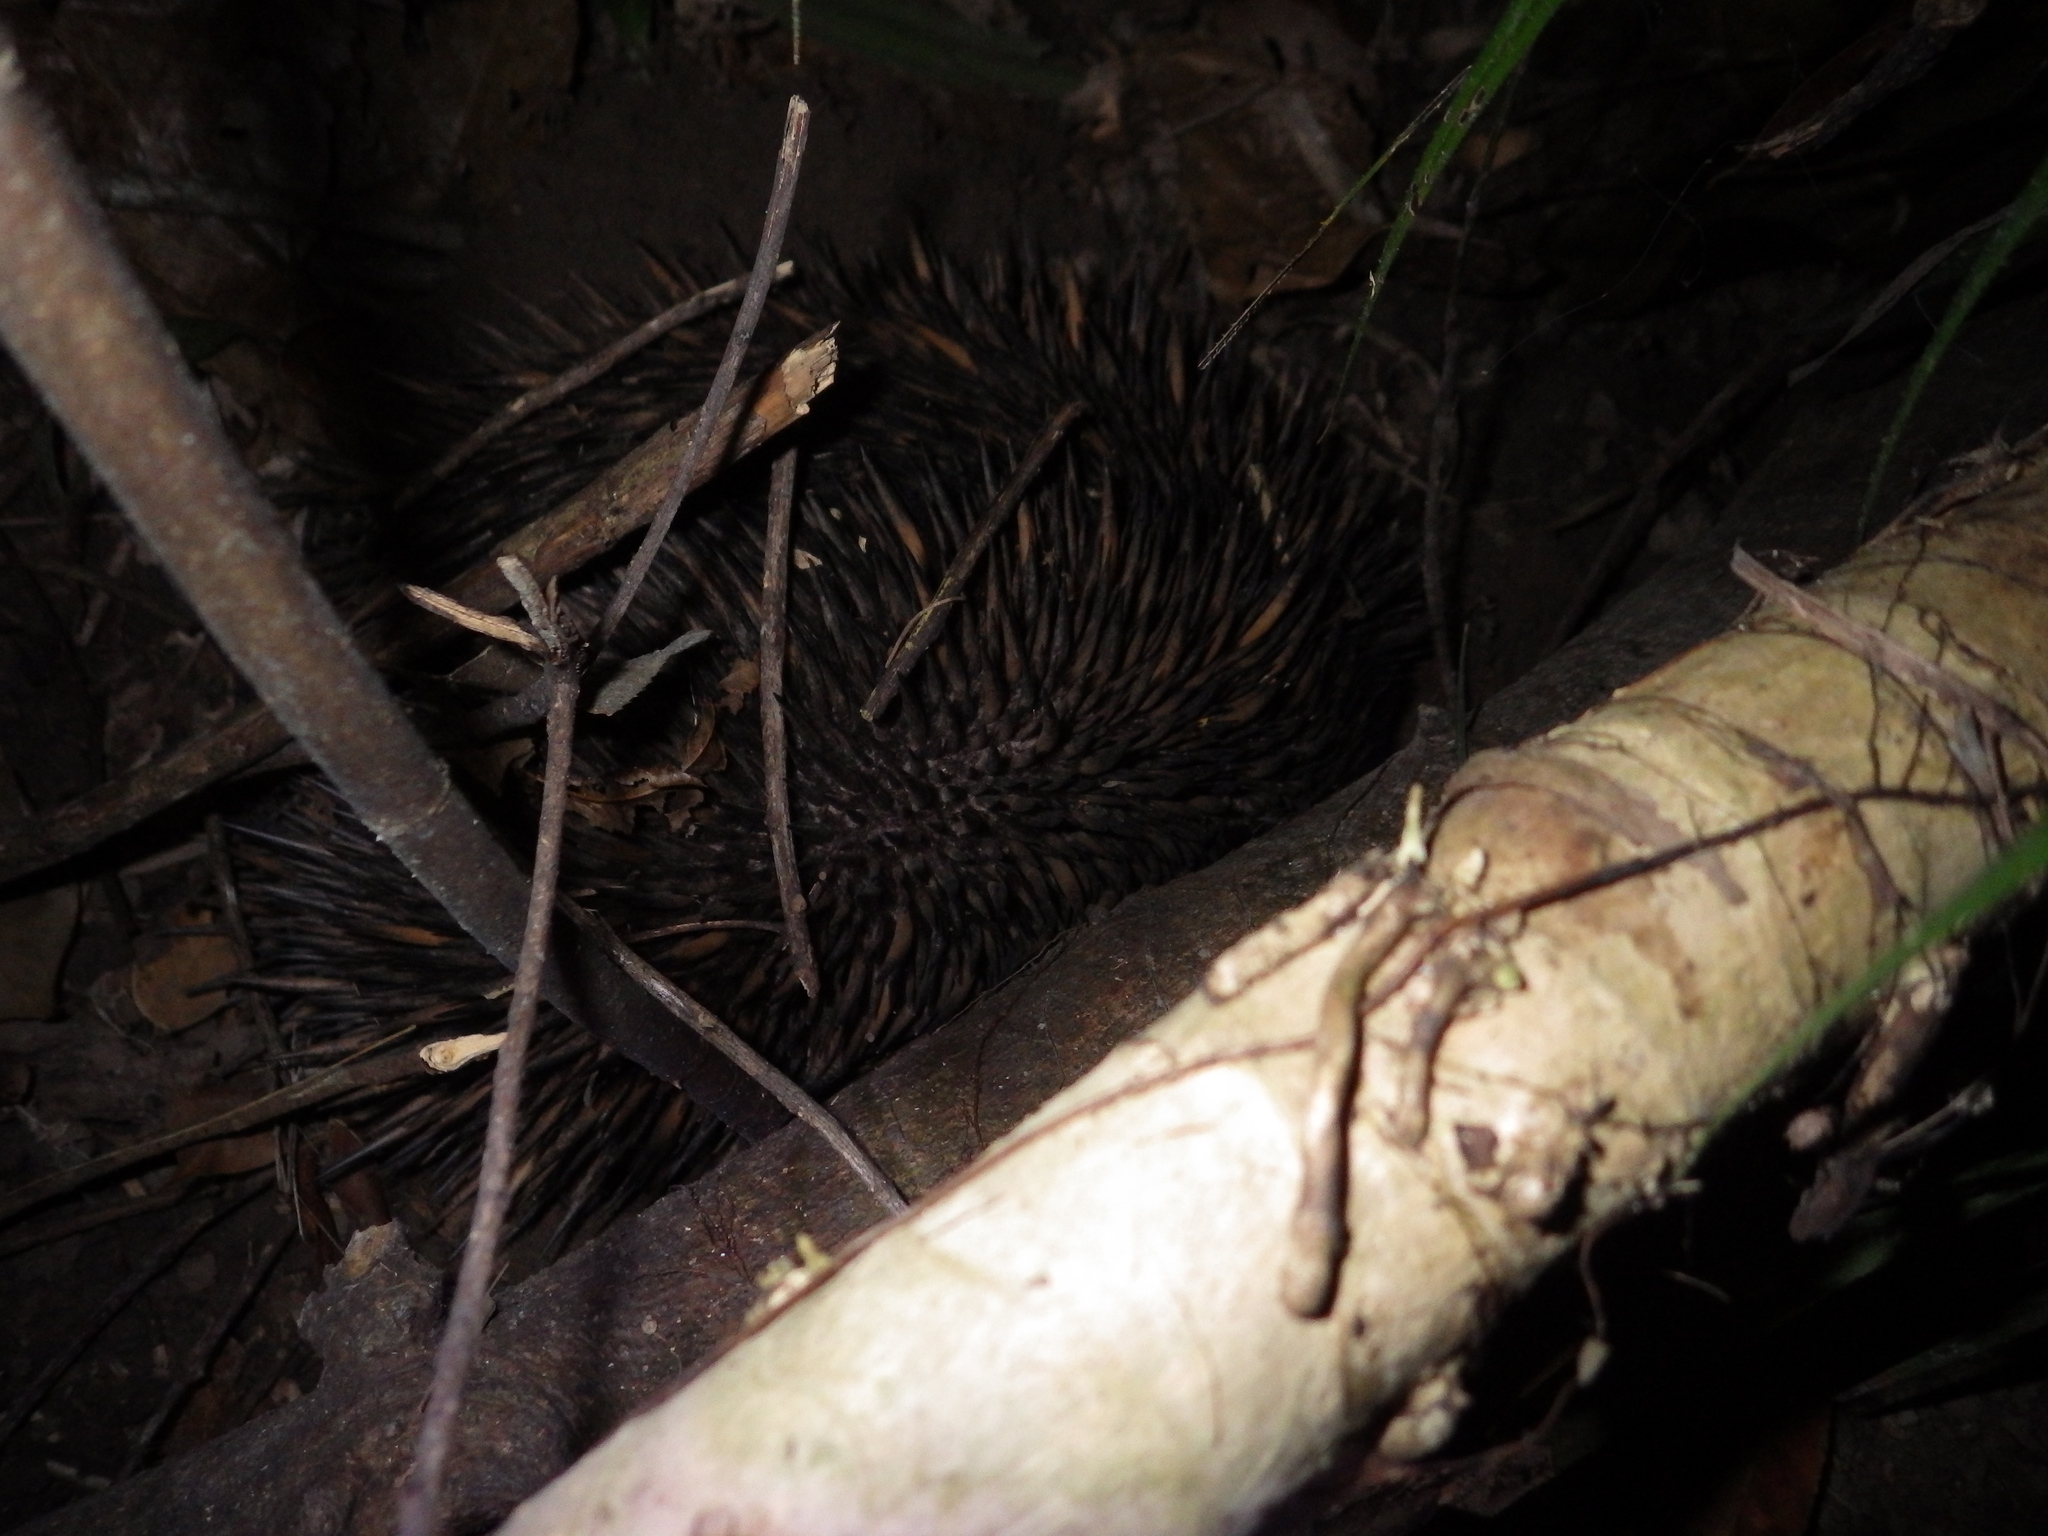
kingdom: Animalia
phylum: Chordata
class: Mammalia
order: Monotremata
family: Tachyglossidae
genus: Tachyglossus
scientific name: Tachyglossus aculeatus
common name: Short-beaked echidna
